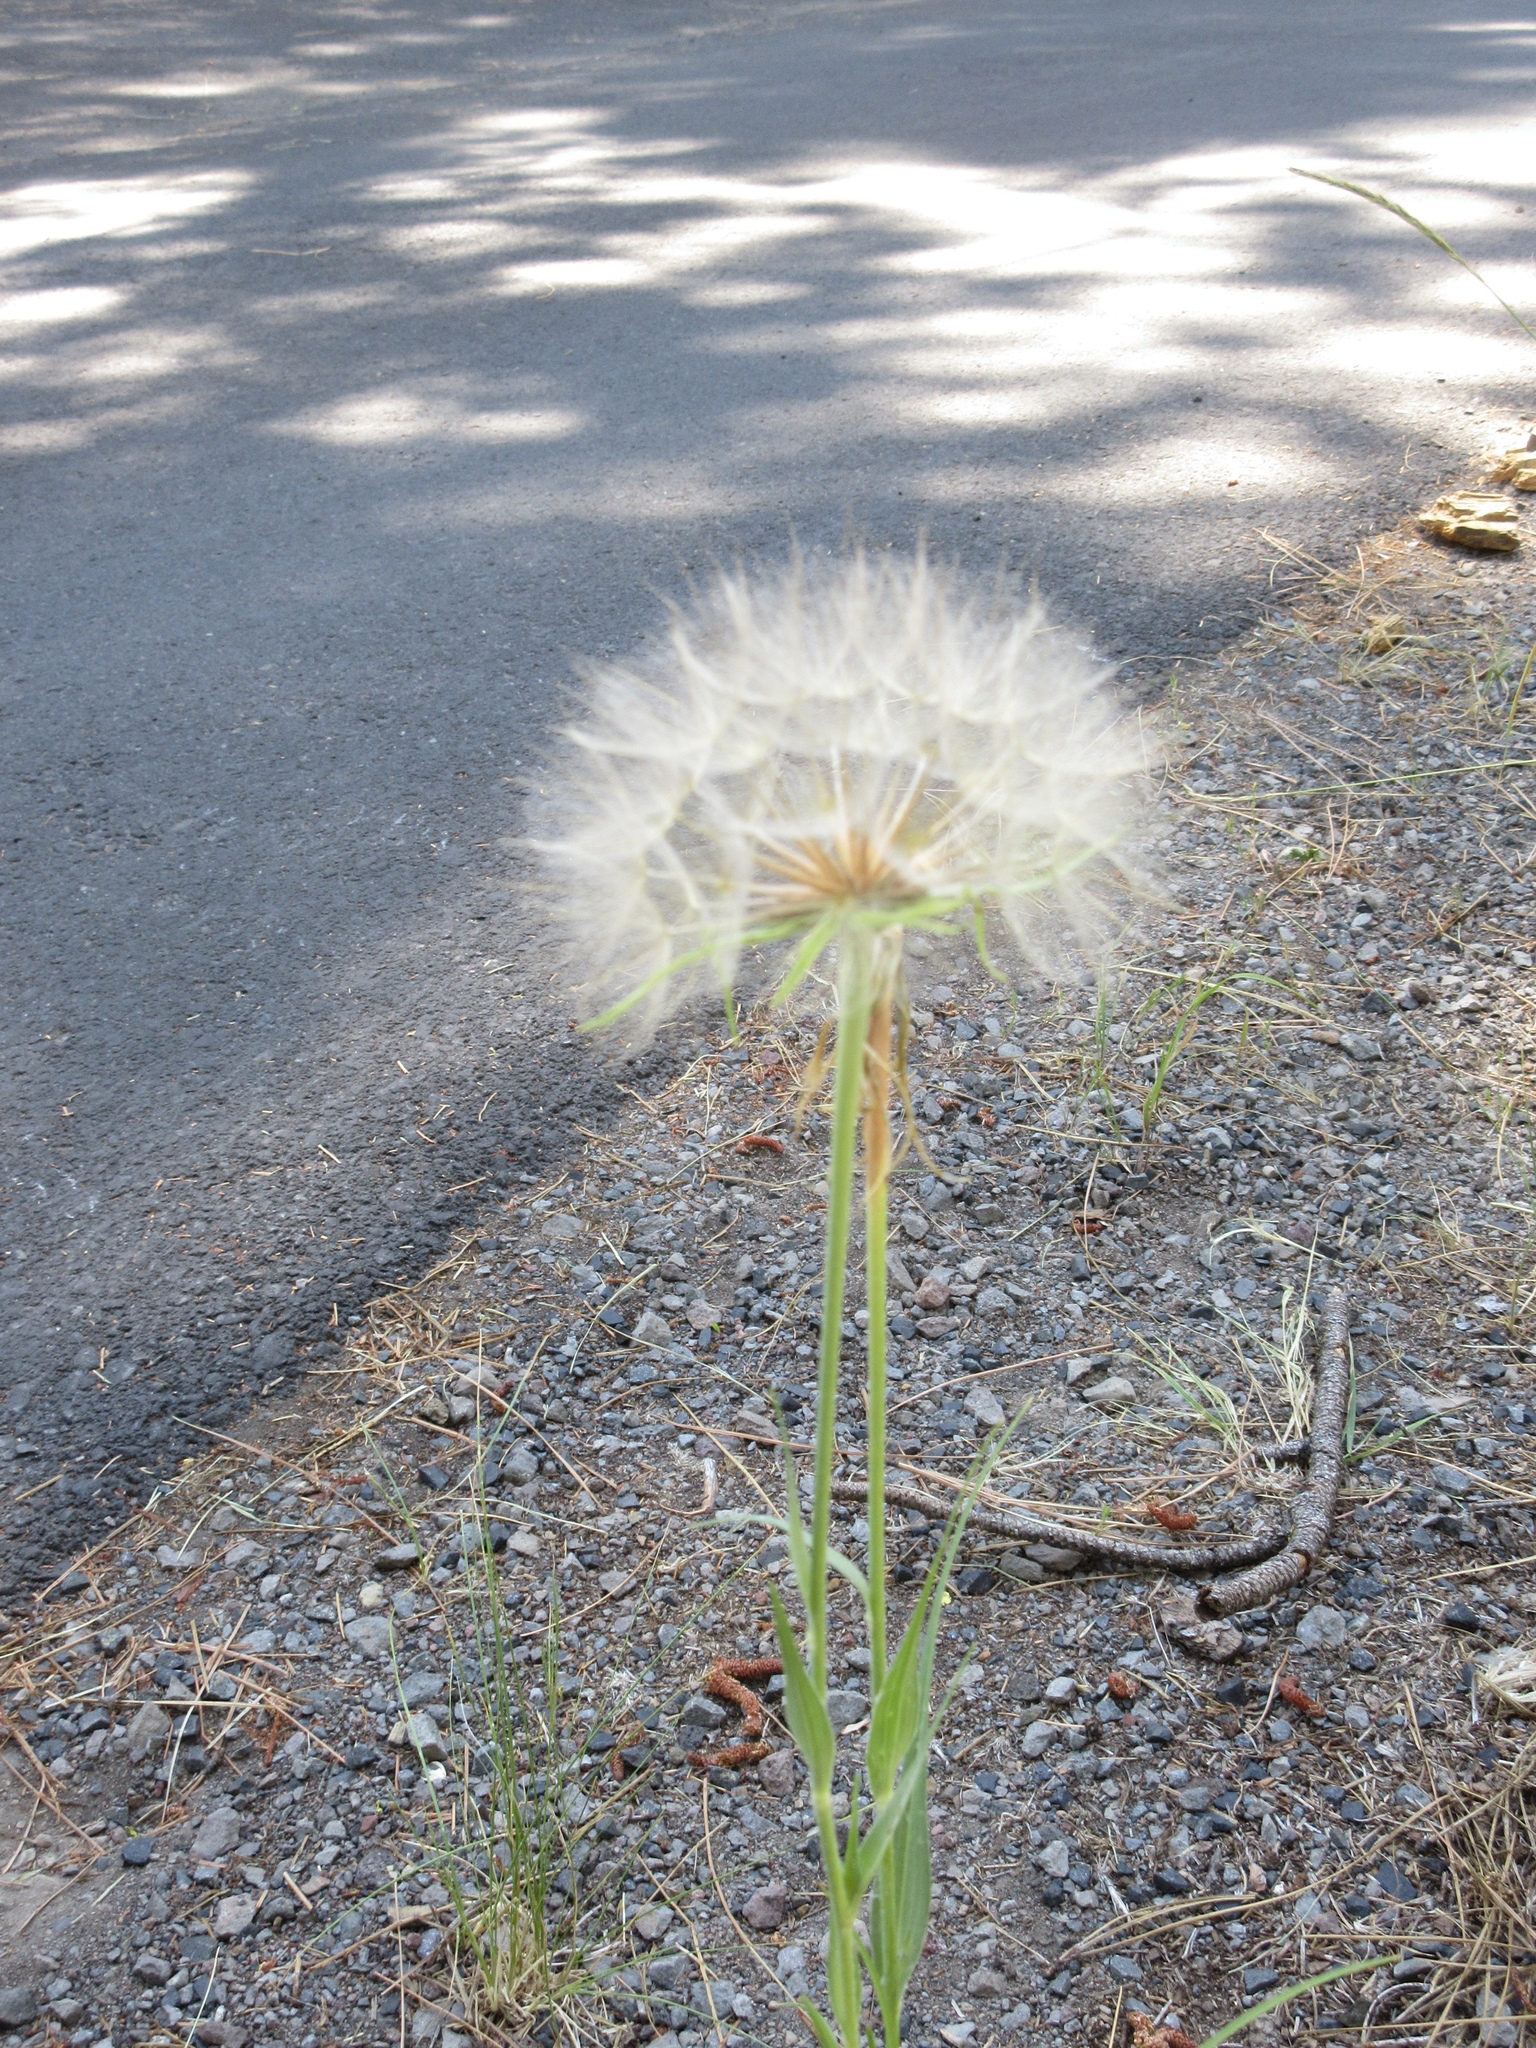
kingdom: Plantae
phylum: Tracheophyta
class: Magnoliopsida
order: Asterales
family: Asteraceae
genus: Tragopogon
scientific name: Tragopogon dubius
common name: Yellow salsify
